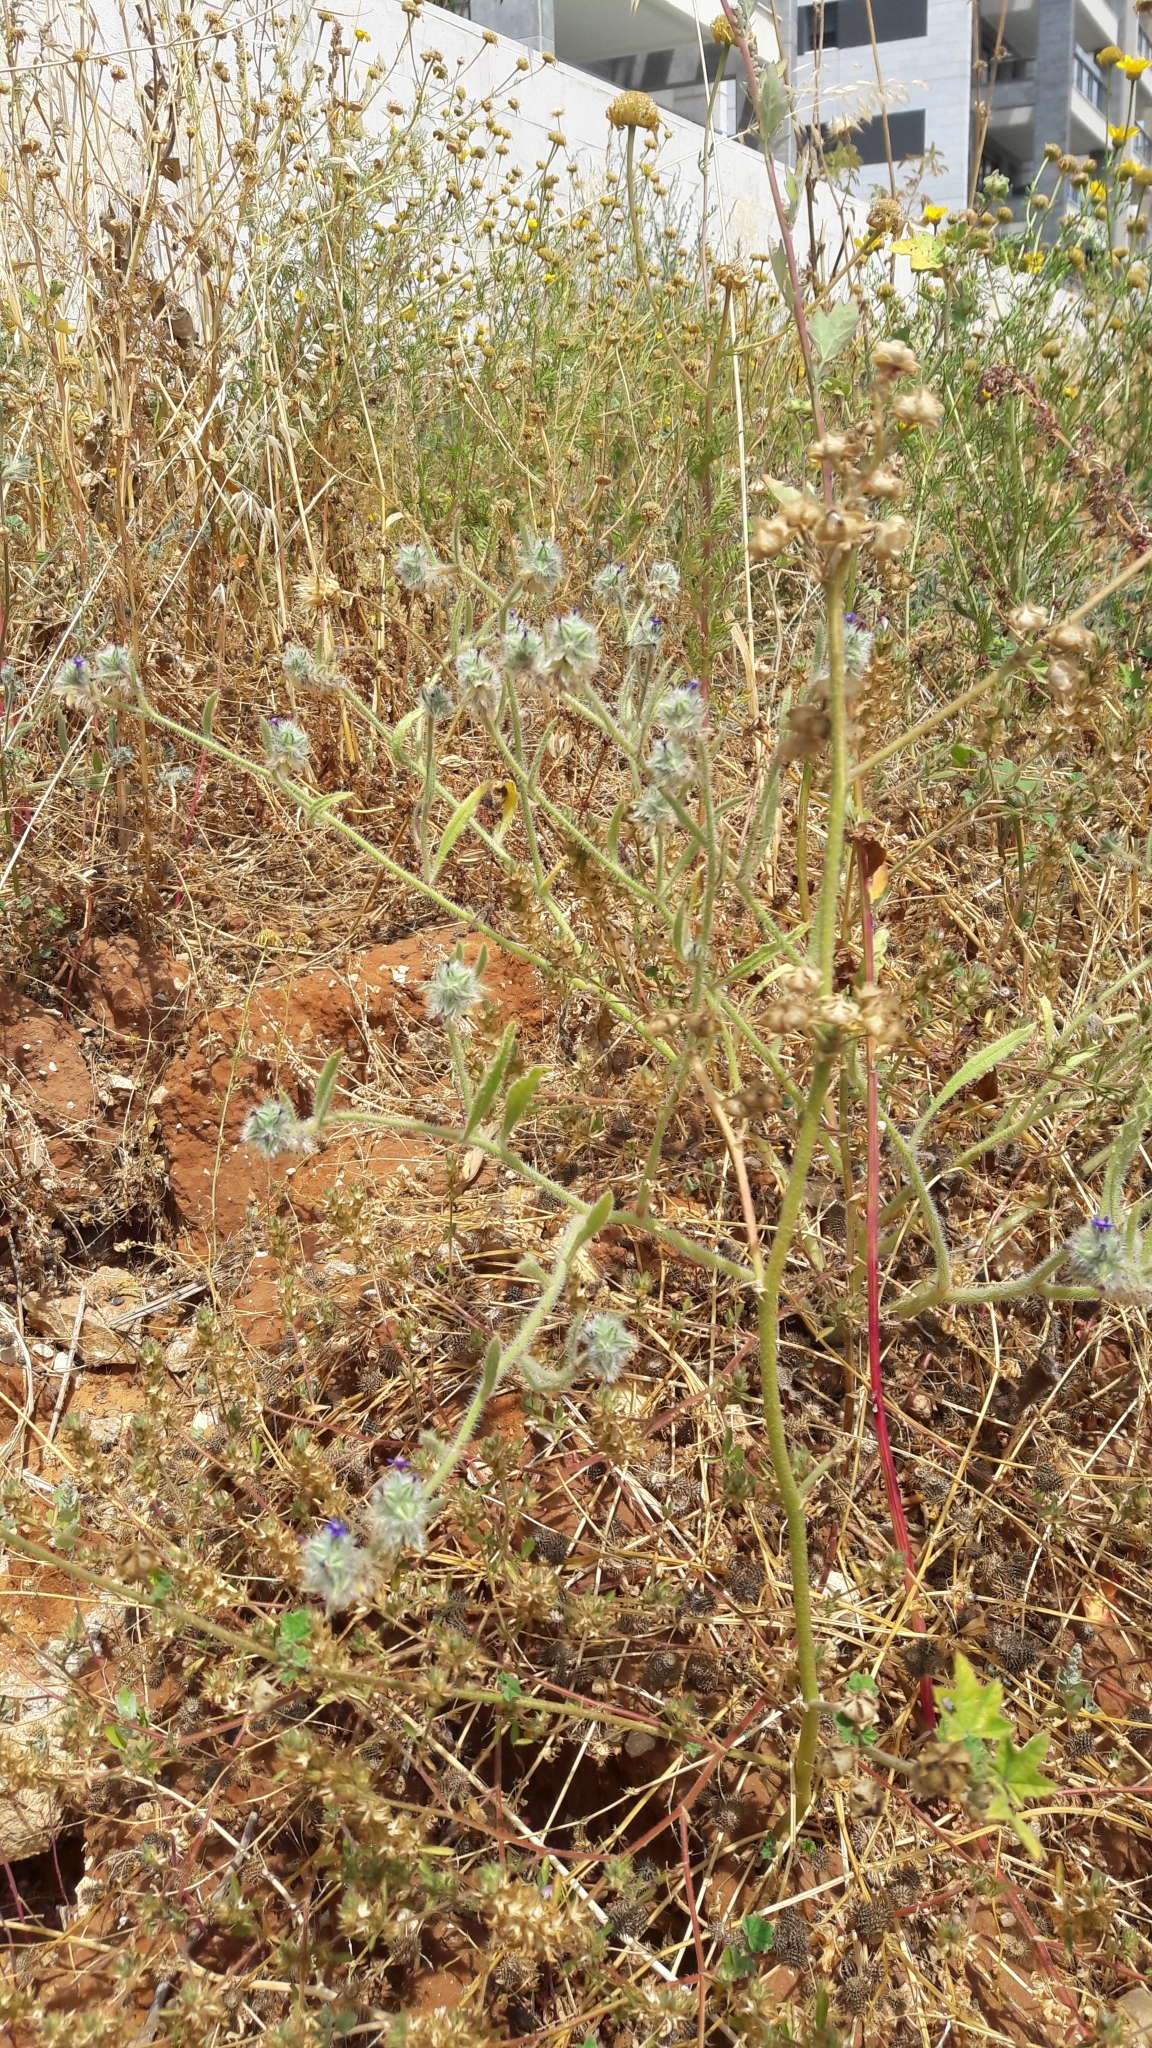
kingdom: Plantae
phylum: Tracheophyta
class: Magnoliopsida
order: Boraginales
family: Boraginaceae
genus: Hormuzakia
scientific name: Hormuzakia aggregata
